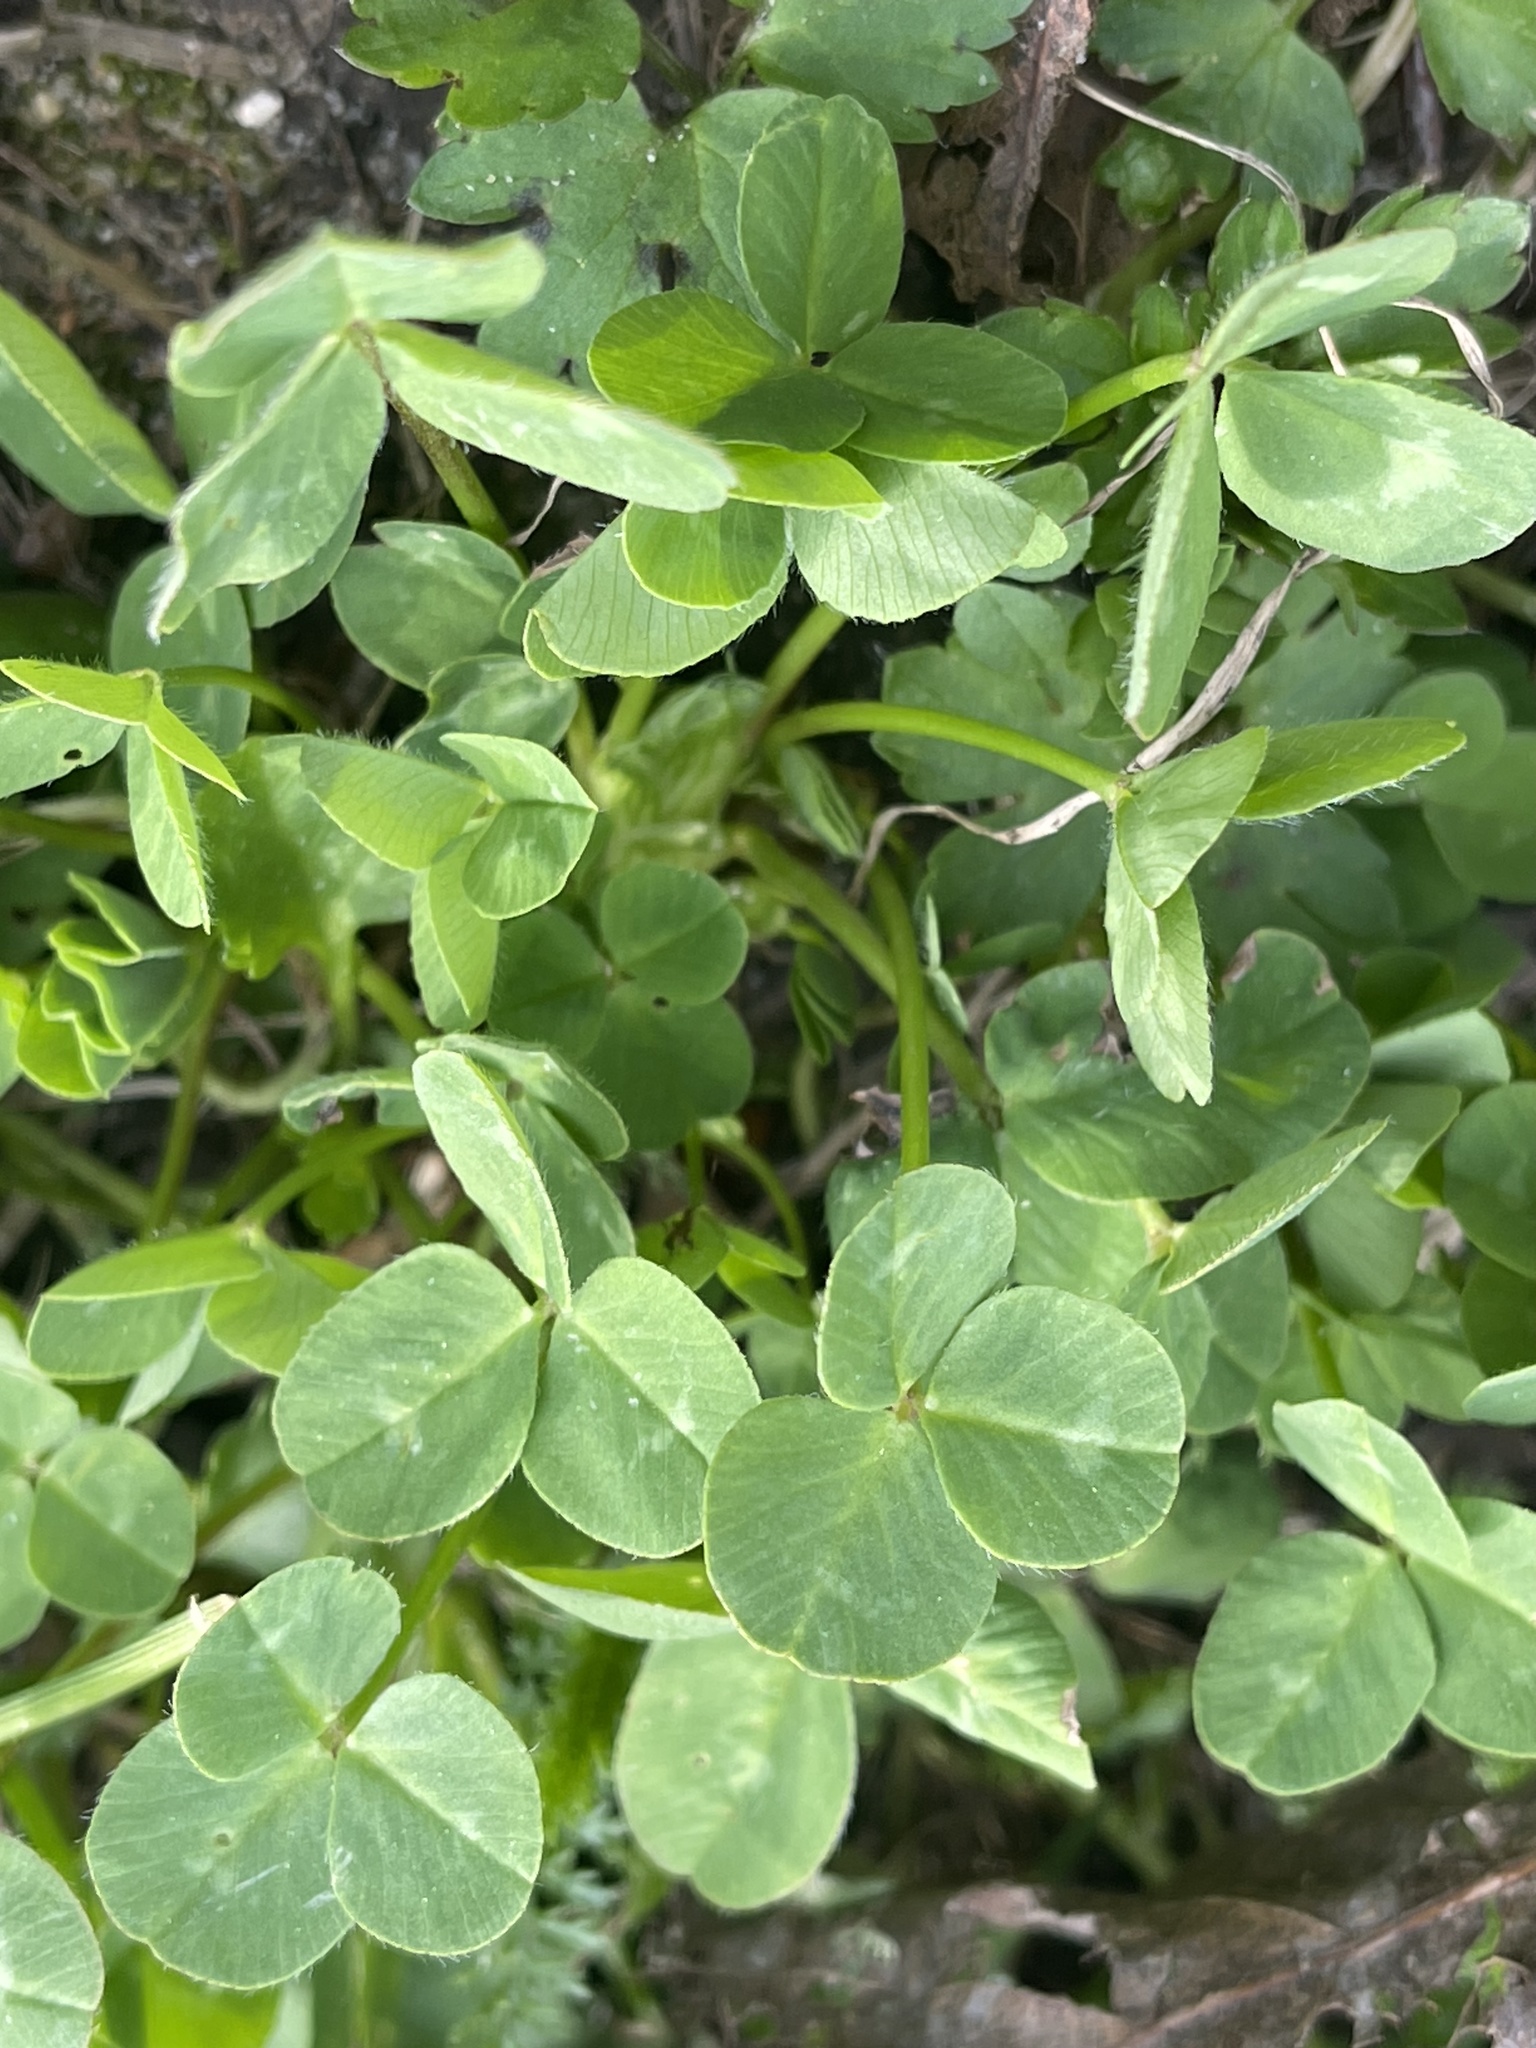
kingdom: Plantae
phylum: Tracheophyta
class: Magnoliopsida
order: Fabales
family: Fabaceae
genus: Trifolium
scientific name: Trifolium repens
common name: White clover
